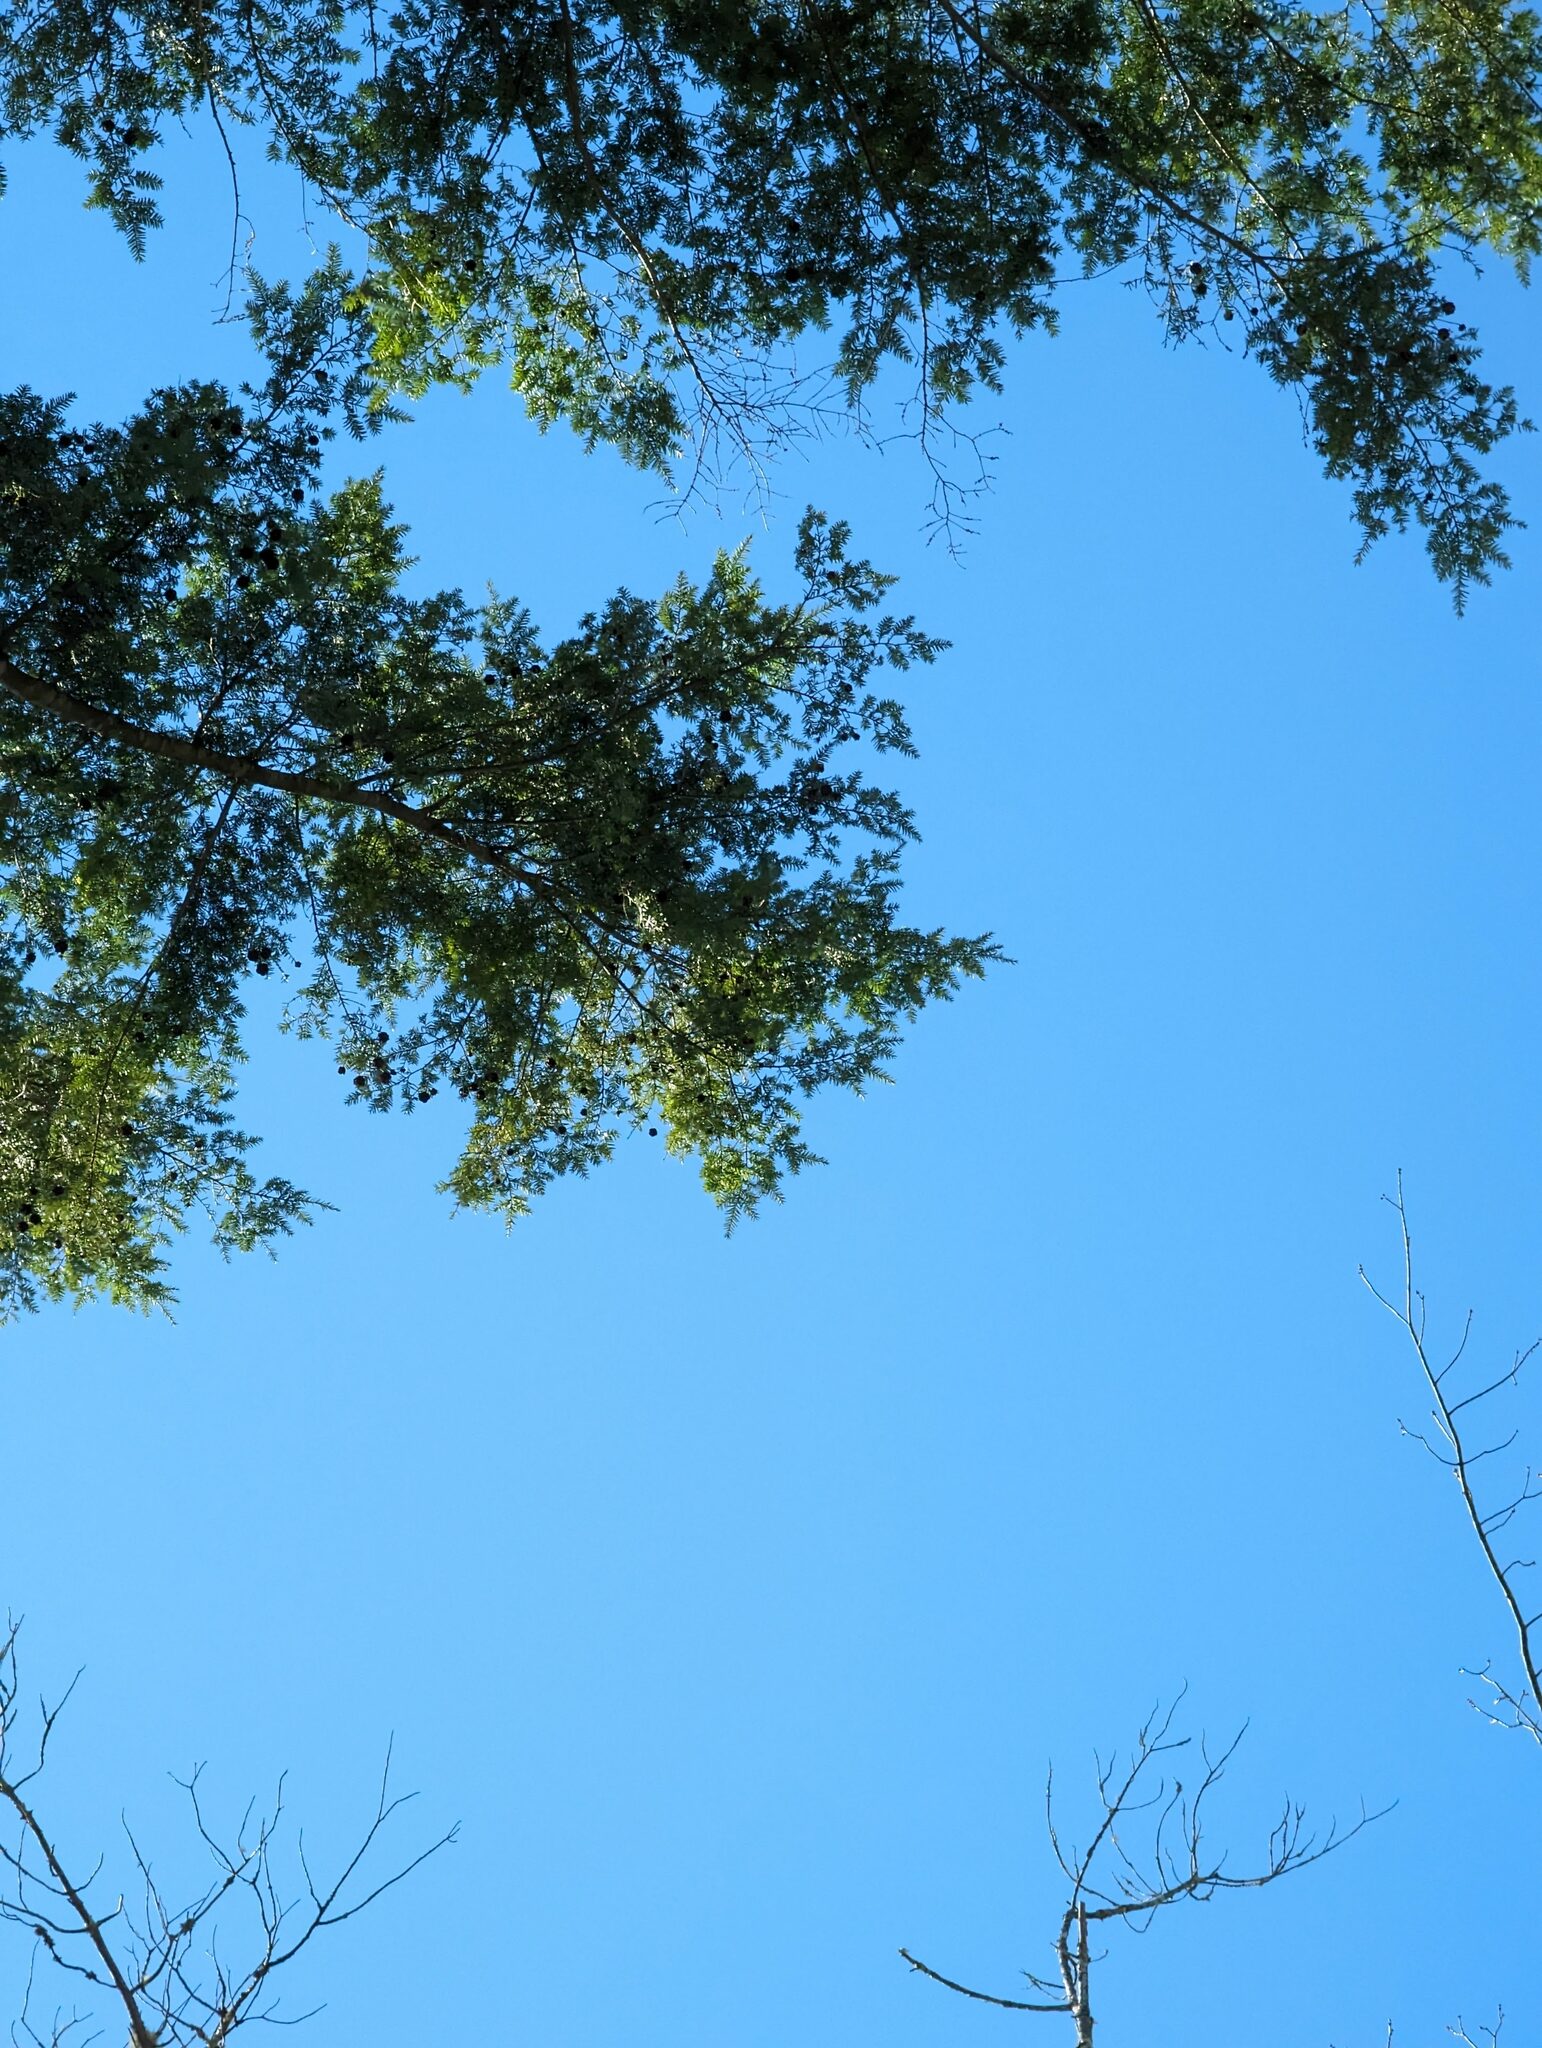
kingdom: Plantae
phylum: Tracheophyta
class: Pinopsida
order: Pinales
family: Pinaceae
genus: Tsuga
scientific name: Tsuga canadensis
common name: Eastern hemlock
